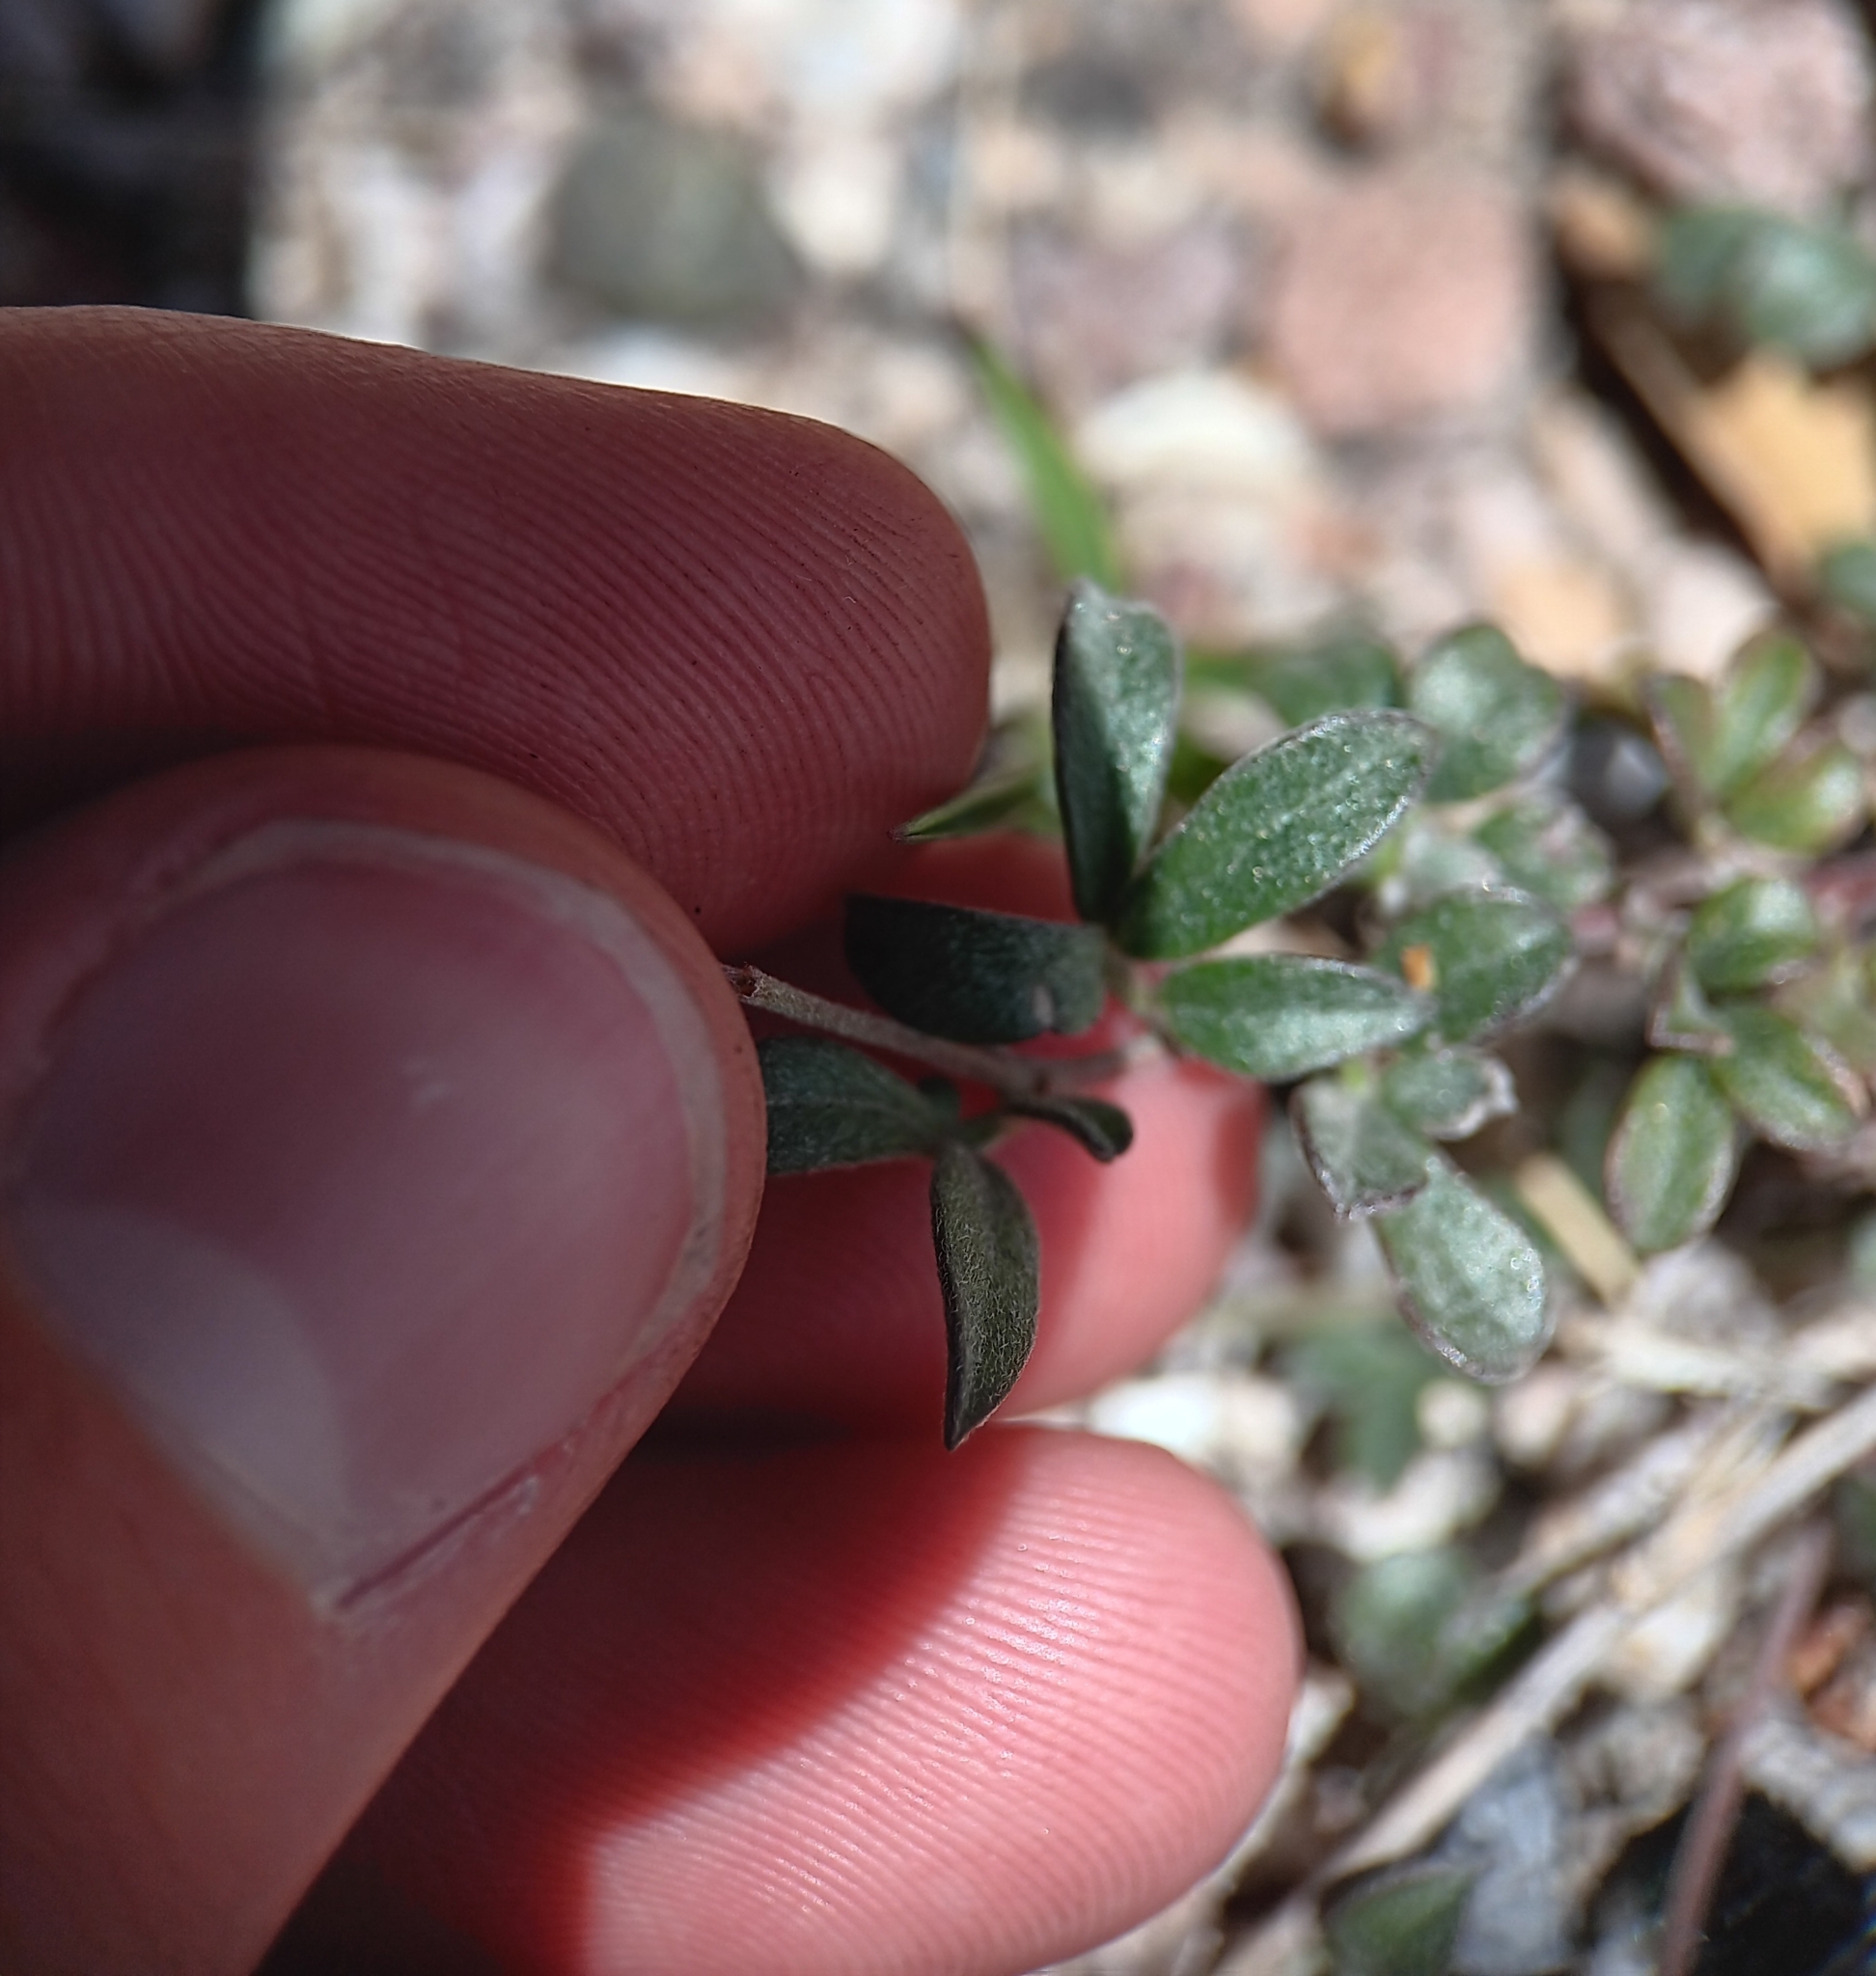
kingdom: Plantae
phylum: Tracheophyta
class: Magnoliopsida
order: Fabales
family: Fabaceae
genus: Acmispon
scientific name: Acmispon oroboides
